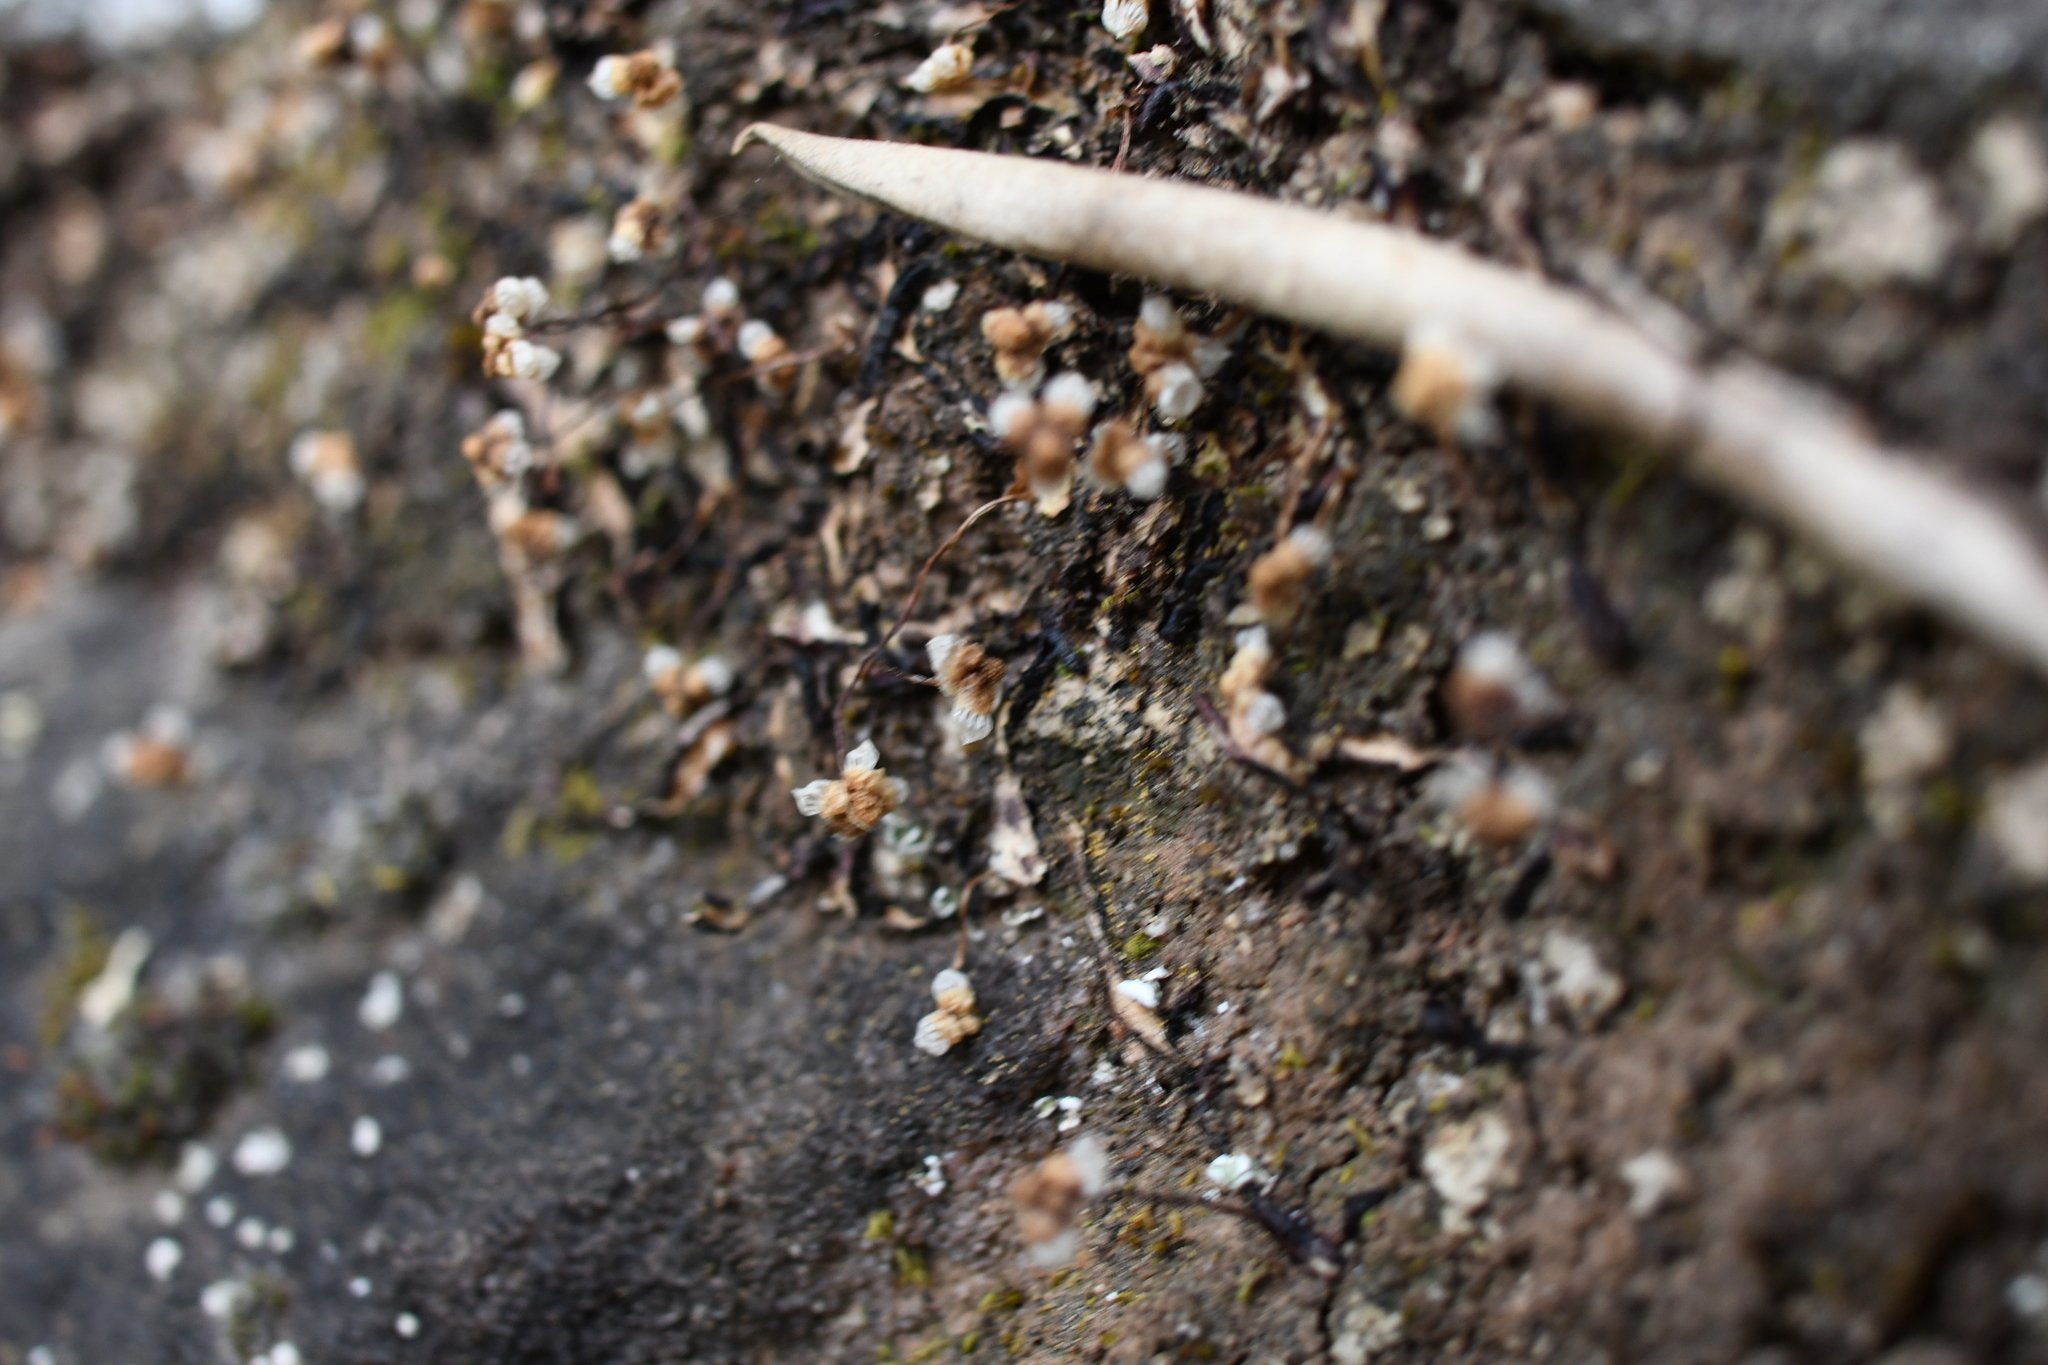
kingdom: Plantae
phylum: Marchantiophyta
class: Marchantiopsida
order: Marchantiales
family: Aytoniaceae
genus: Asterella
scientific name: Asterella drummondii
